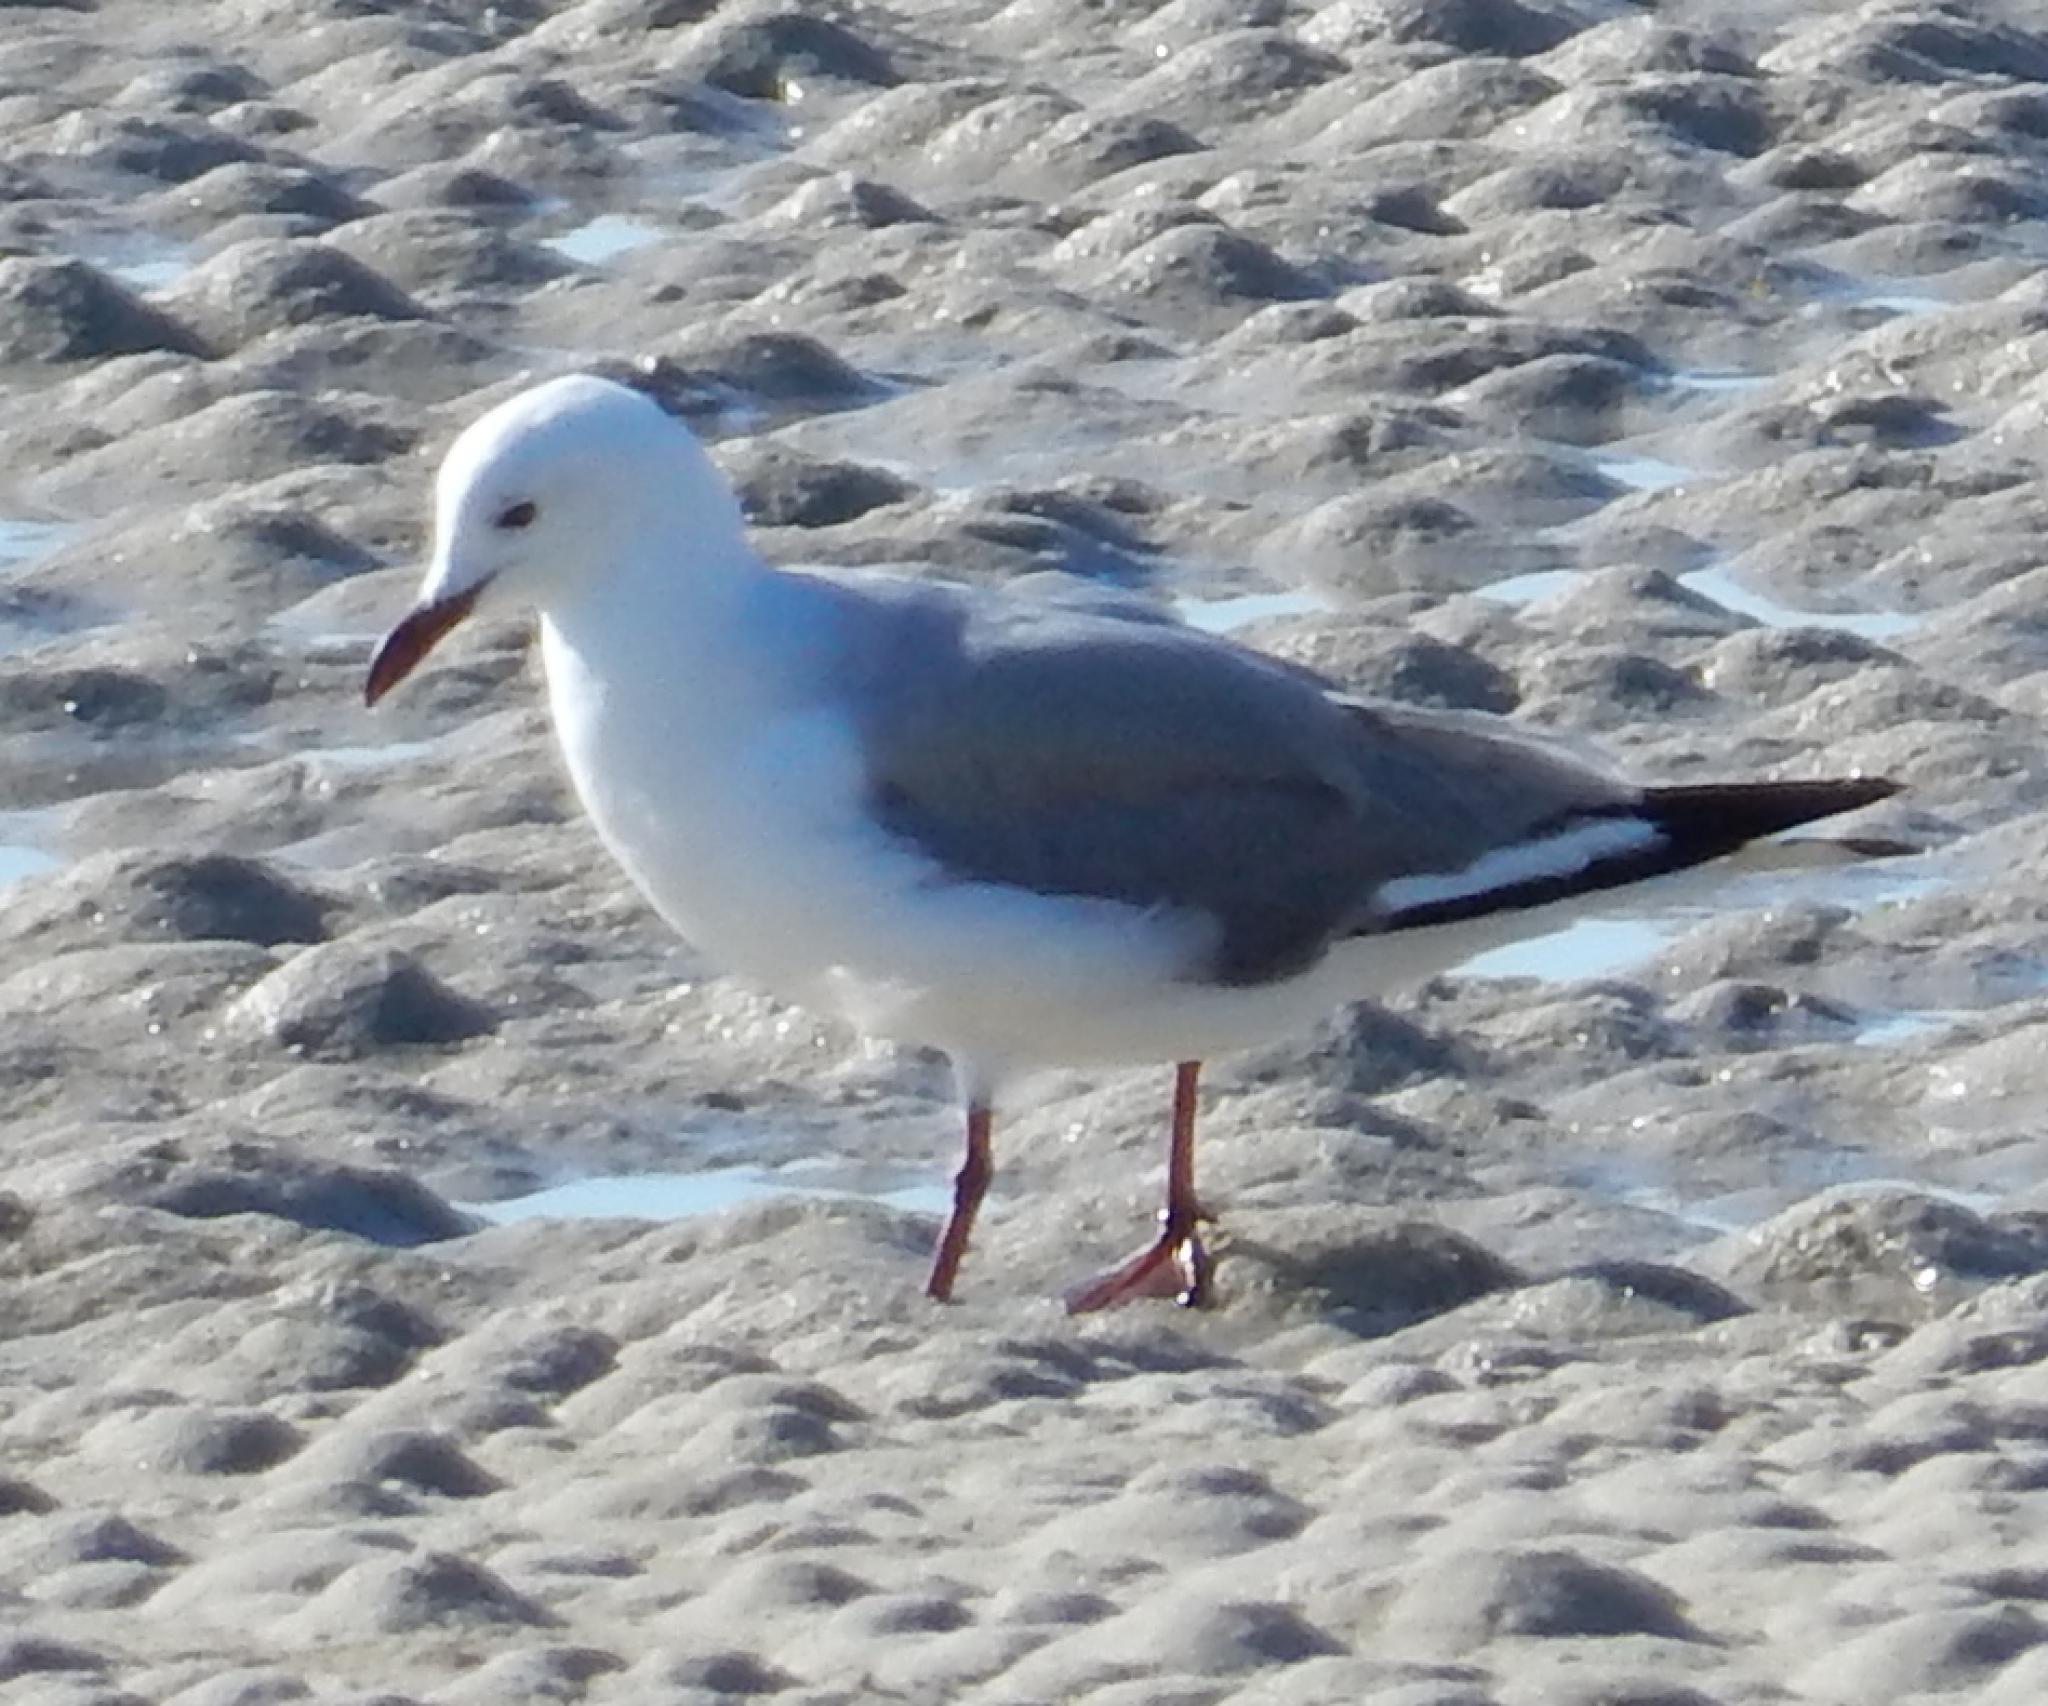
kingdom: Animalia
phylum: Chordata
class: Aves
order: Charadriiformes
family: Laridae
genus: Chroicocephalus
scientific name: Chroicocephalus hartlaubii
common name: Hartlaub's gull
